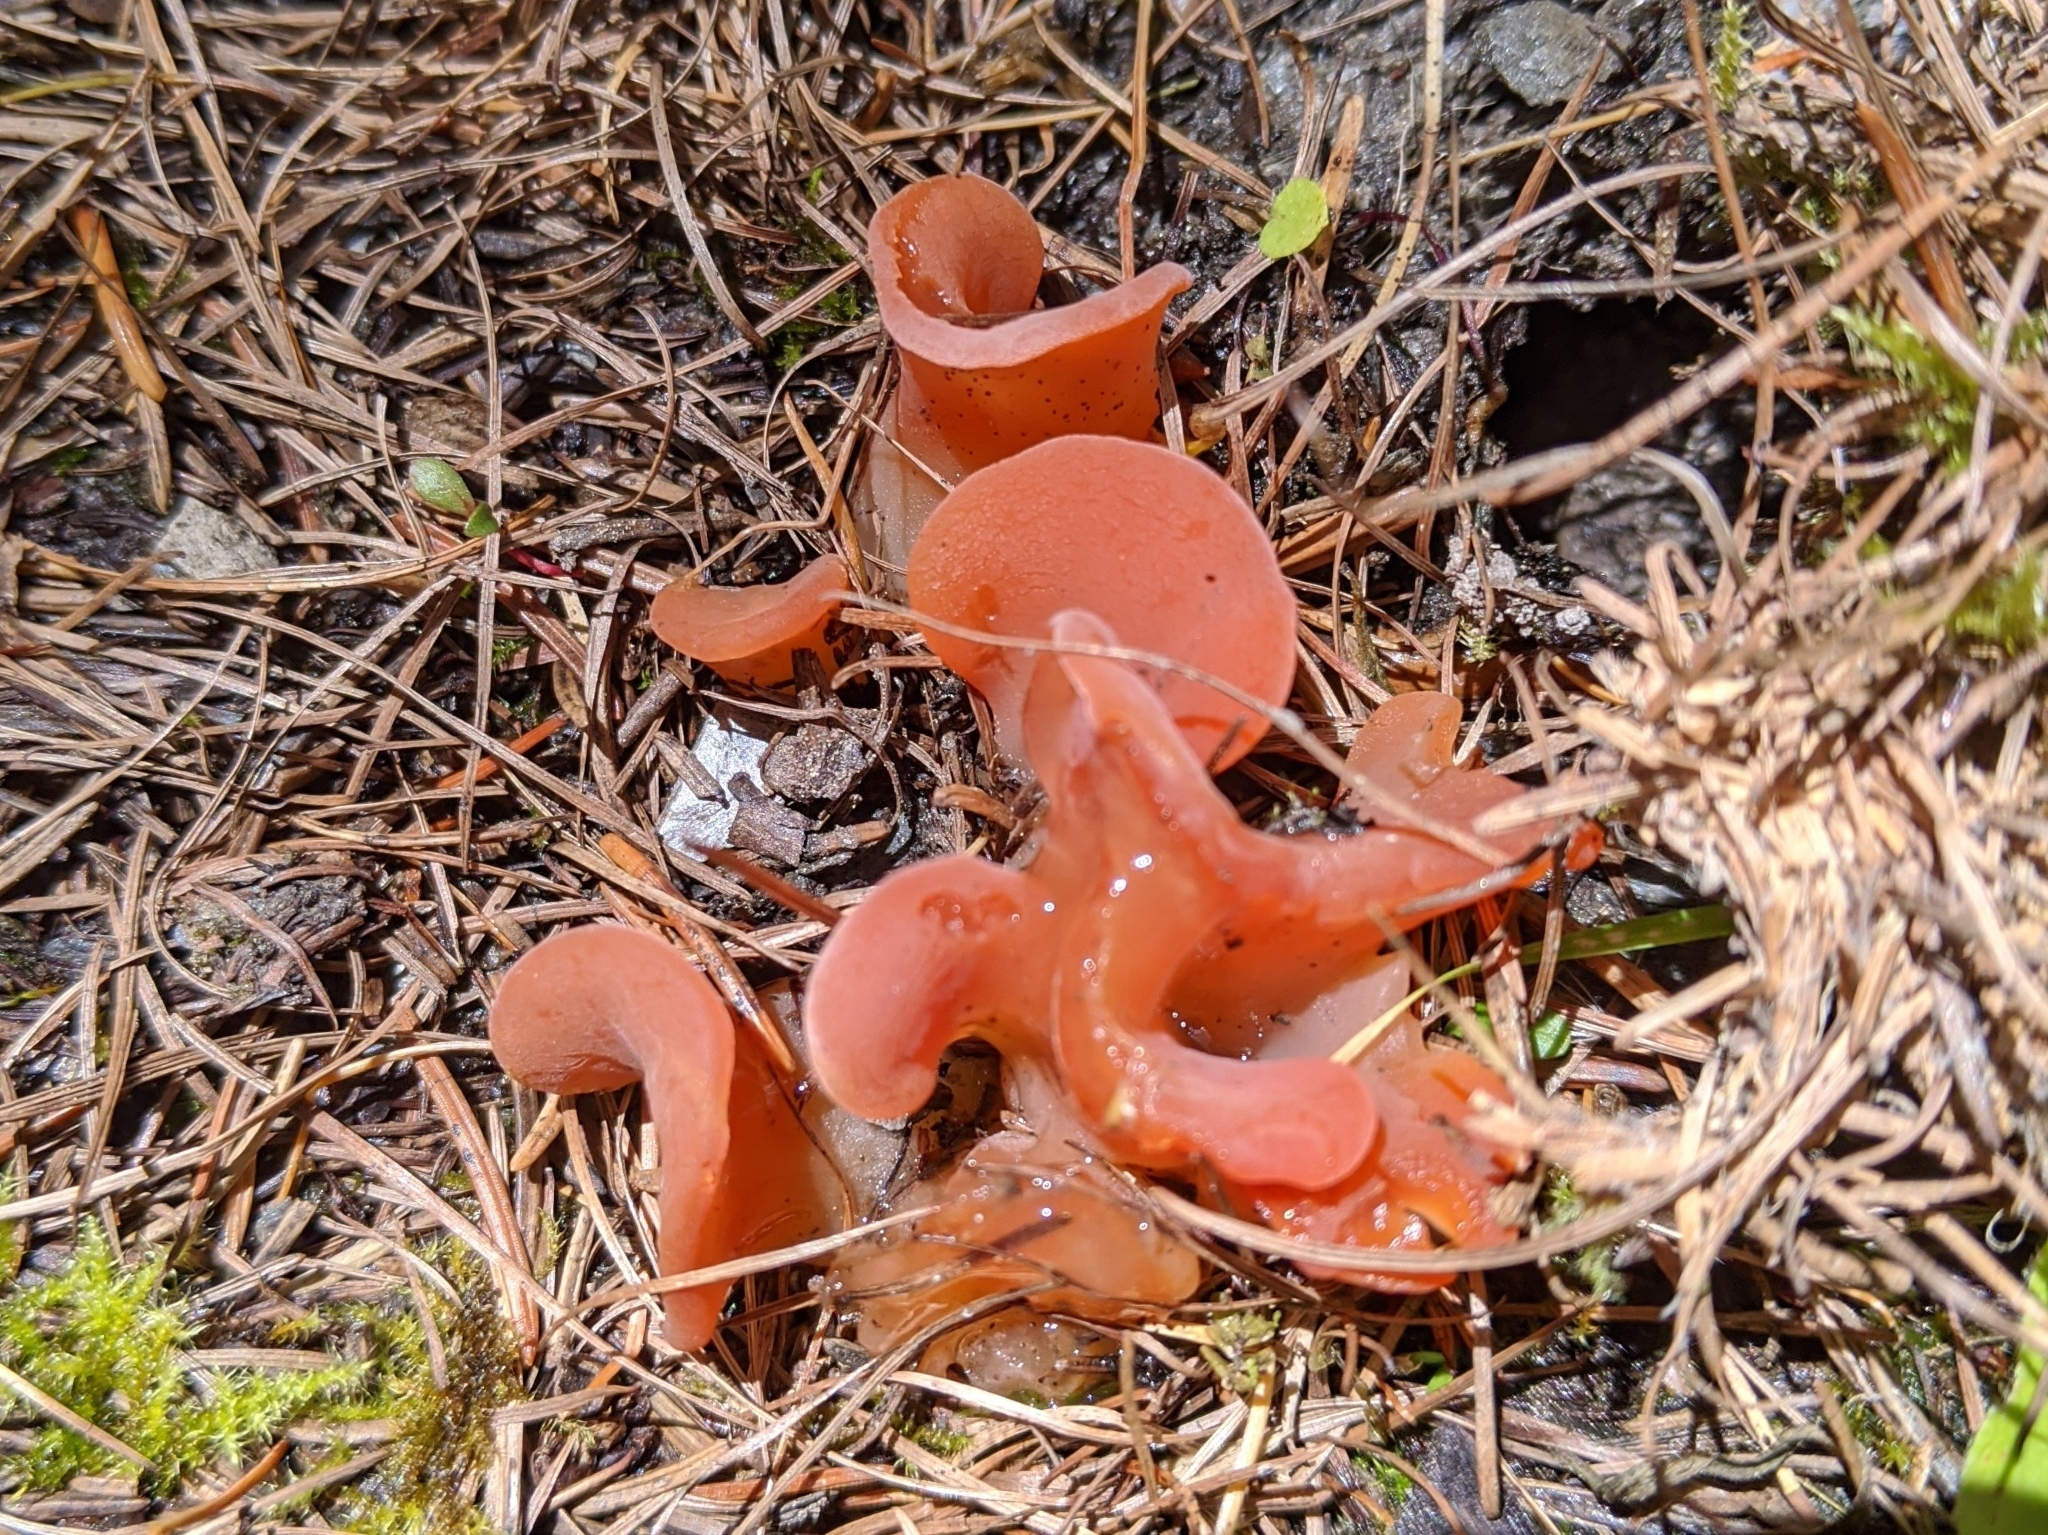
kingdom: Fungi
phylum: Basidiomycota
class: Agaricomycetes
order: Auriculariales
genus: Guepinia
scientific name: Guepinia helvelloides
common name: Salmon salad
